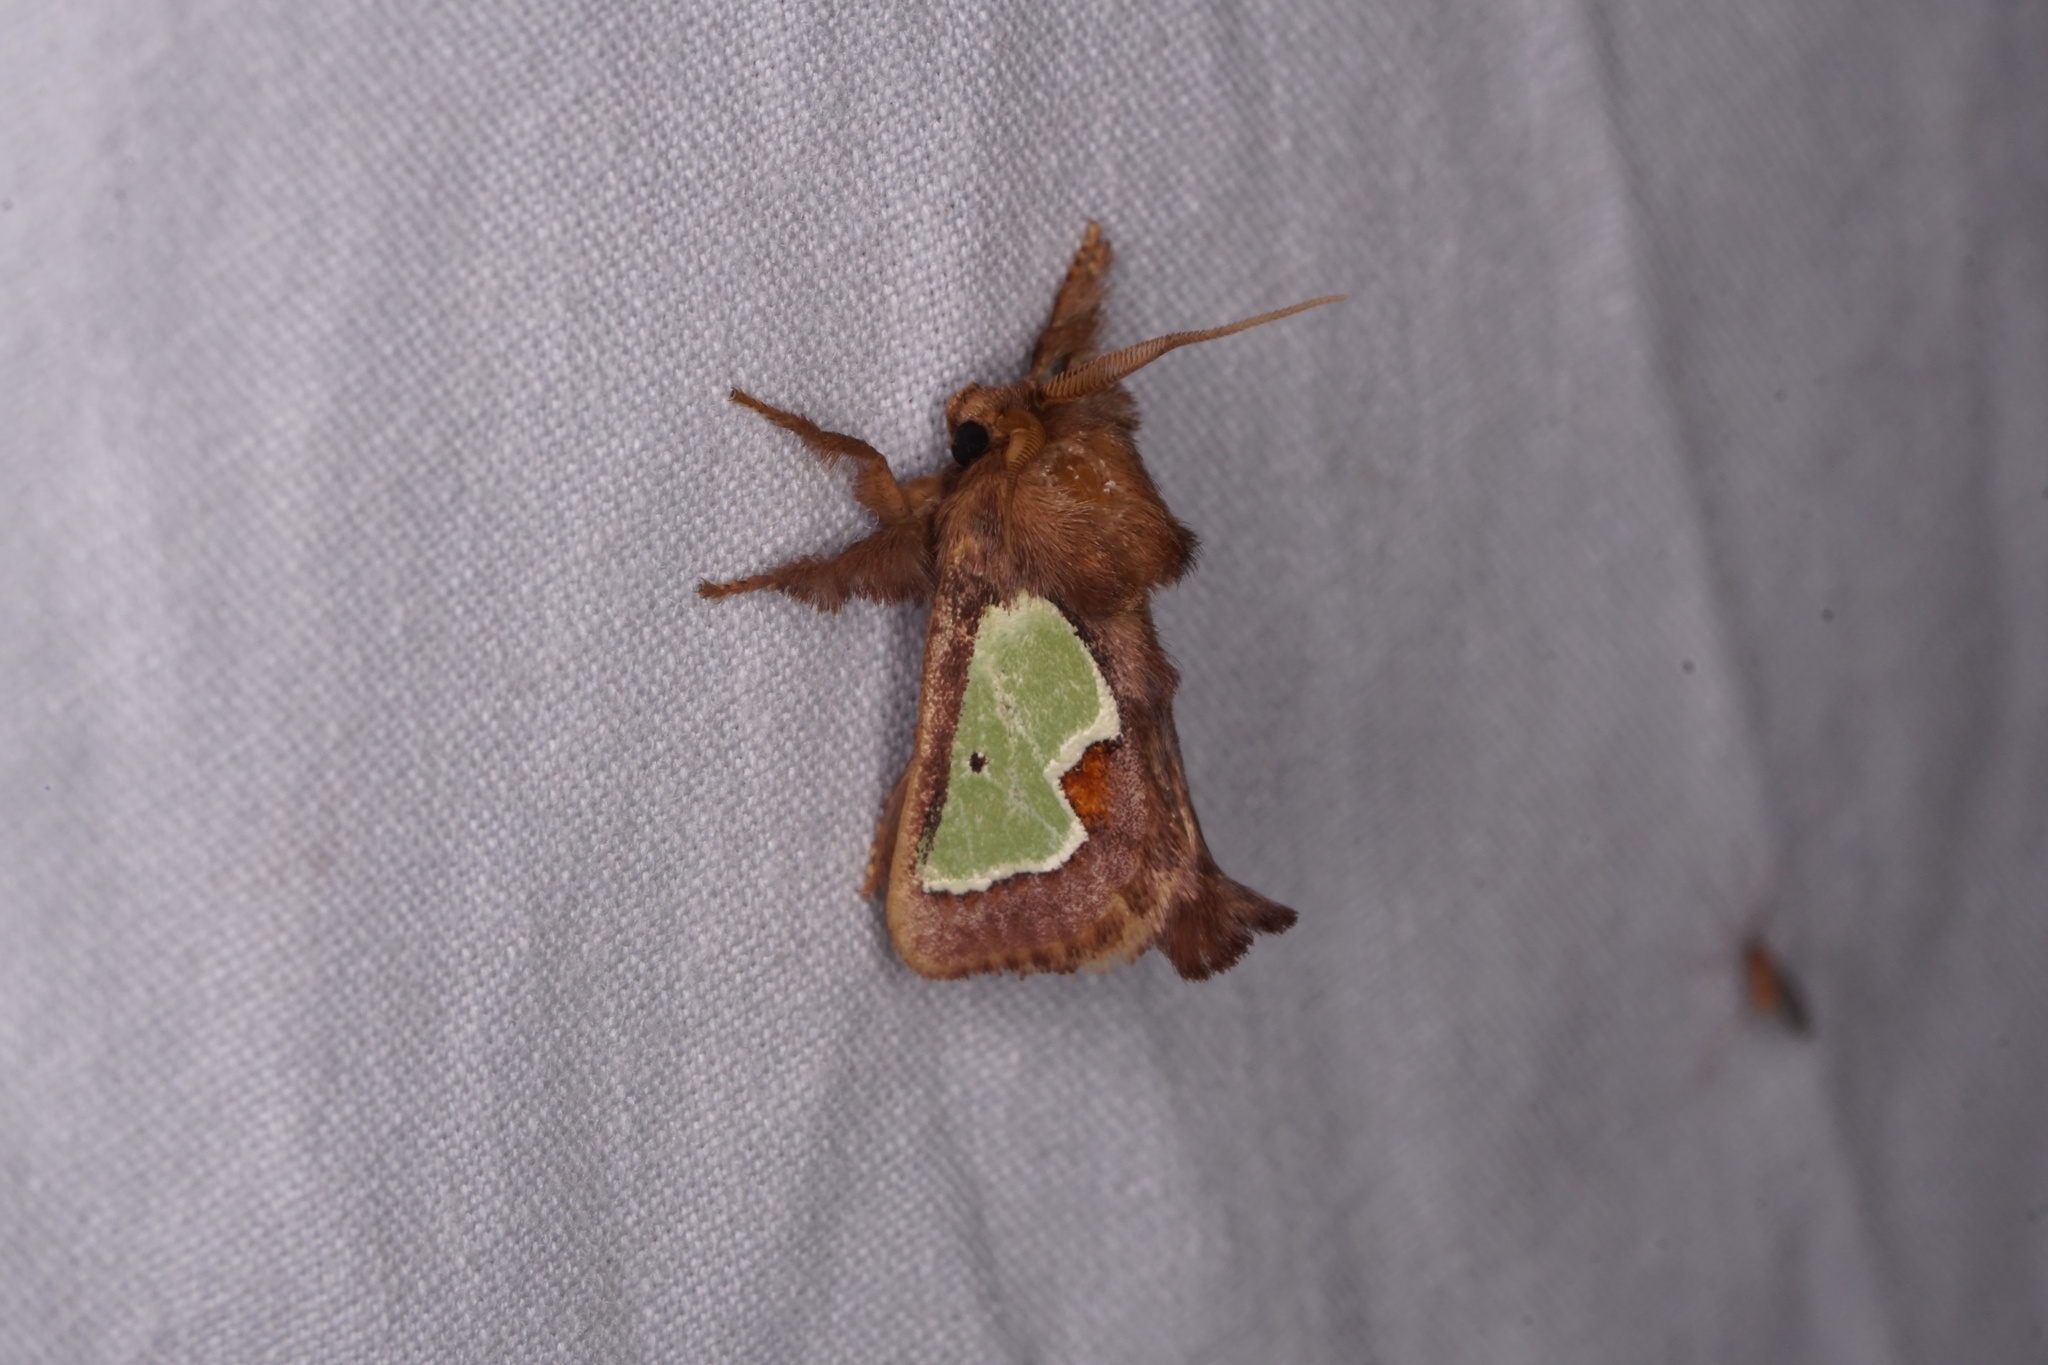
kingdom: Animalia
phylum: Arthropoda
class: Insecta
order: Lepidoptera
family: Limacodidae
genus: Euclea
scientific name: Euclea delphinii
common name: Spiny oak-slug moth
